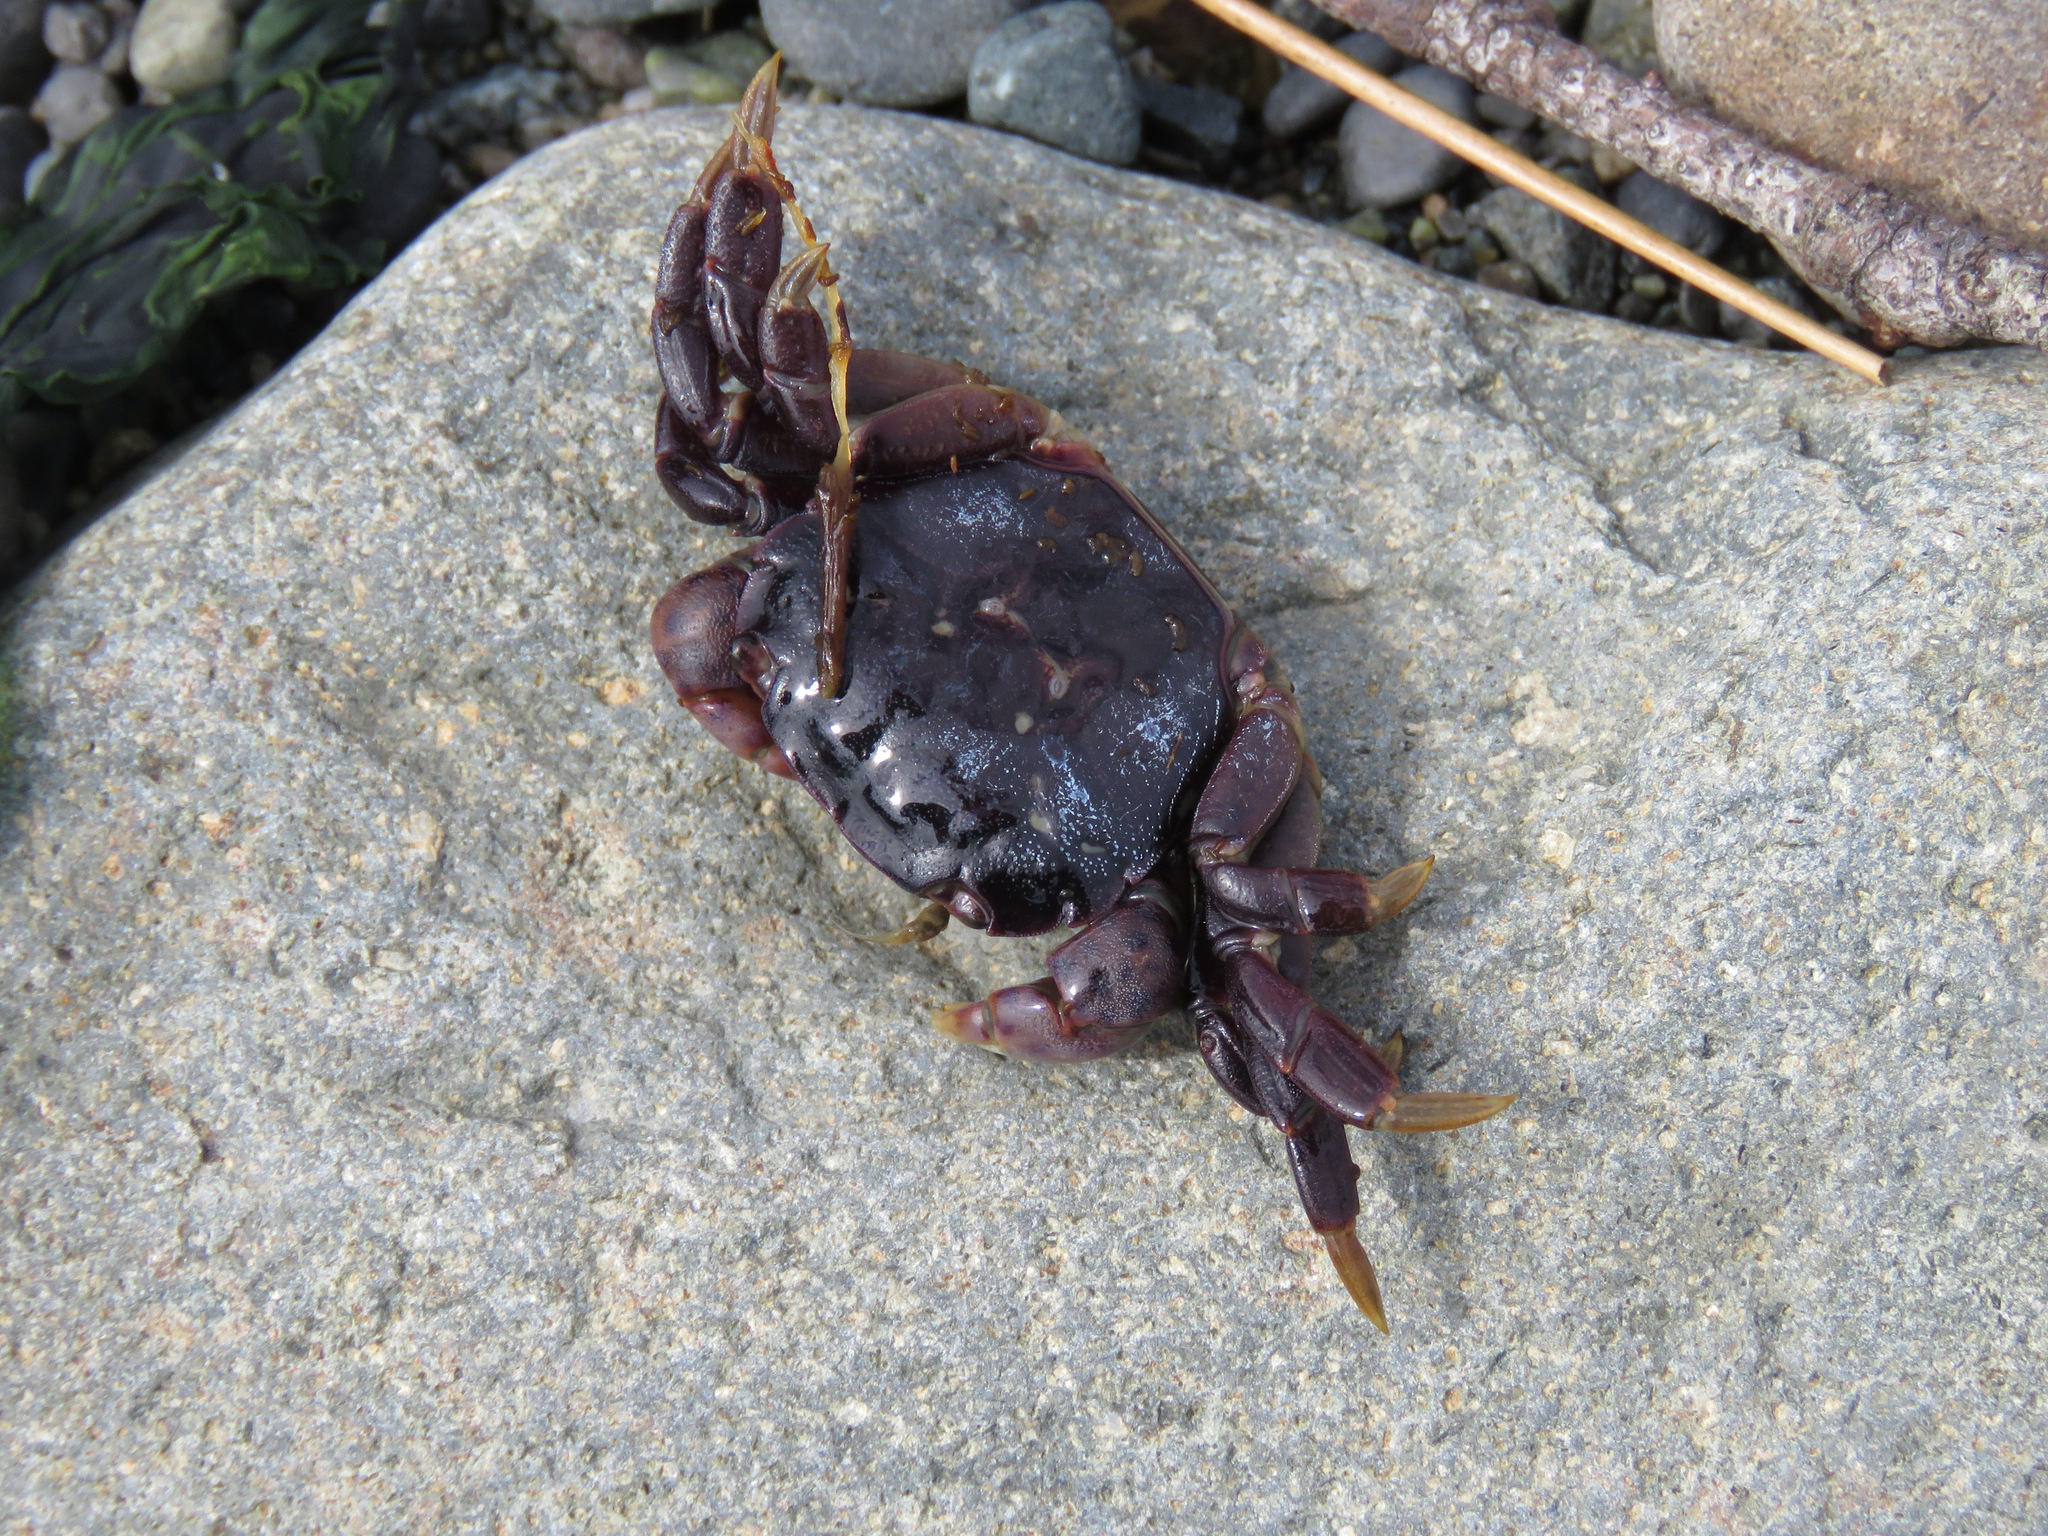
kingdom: Animalia
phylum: Arthropoda
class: Malacostraca
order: Decapoda
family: Varunidae
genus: Hemigrapsus
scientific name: Hemigrapsus nudus
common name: Purple shore crab
